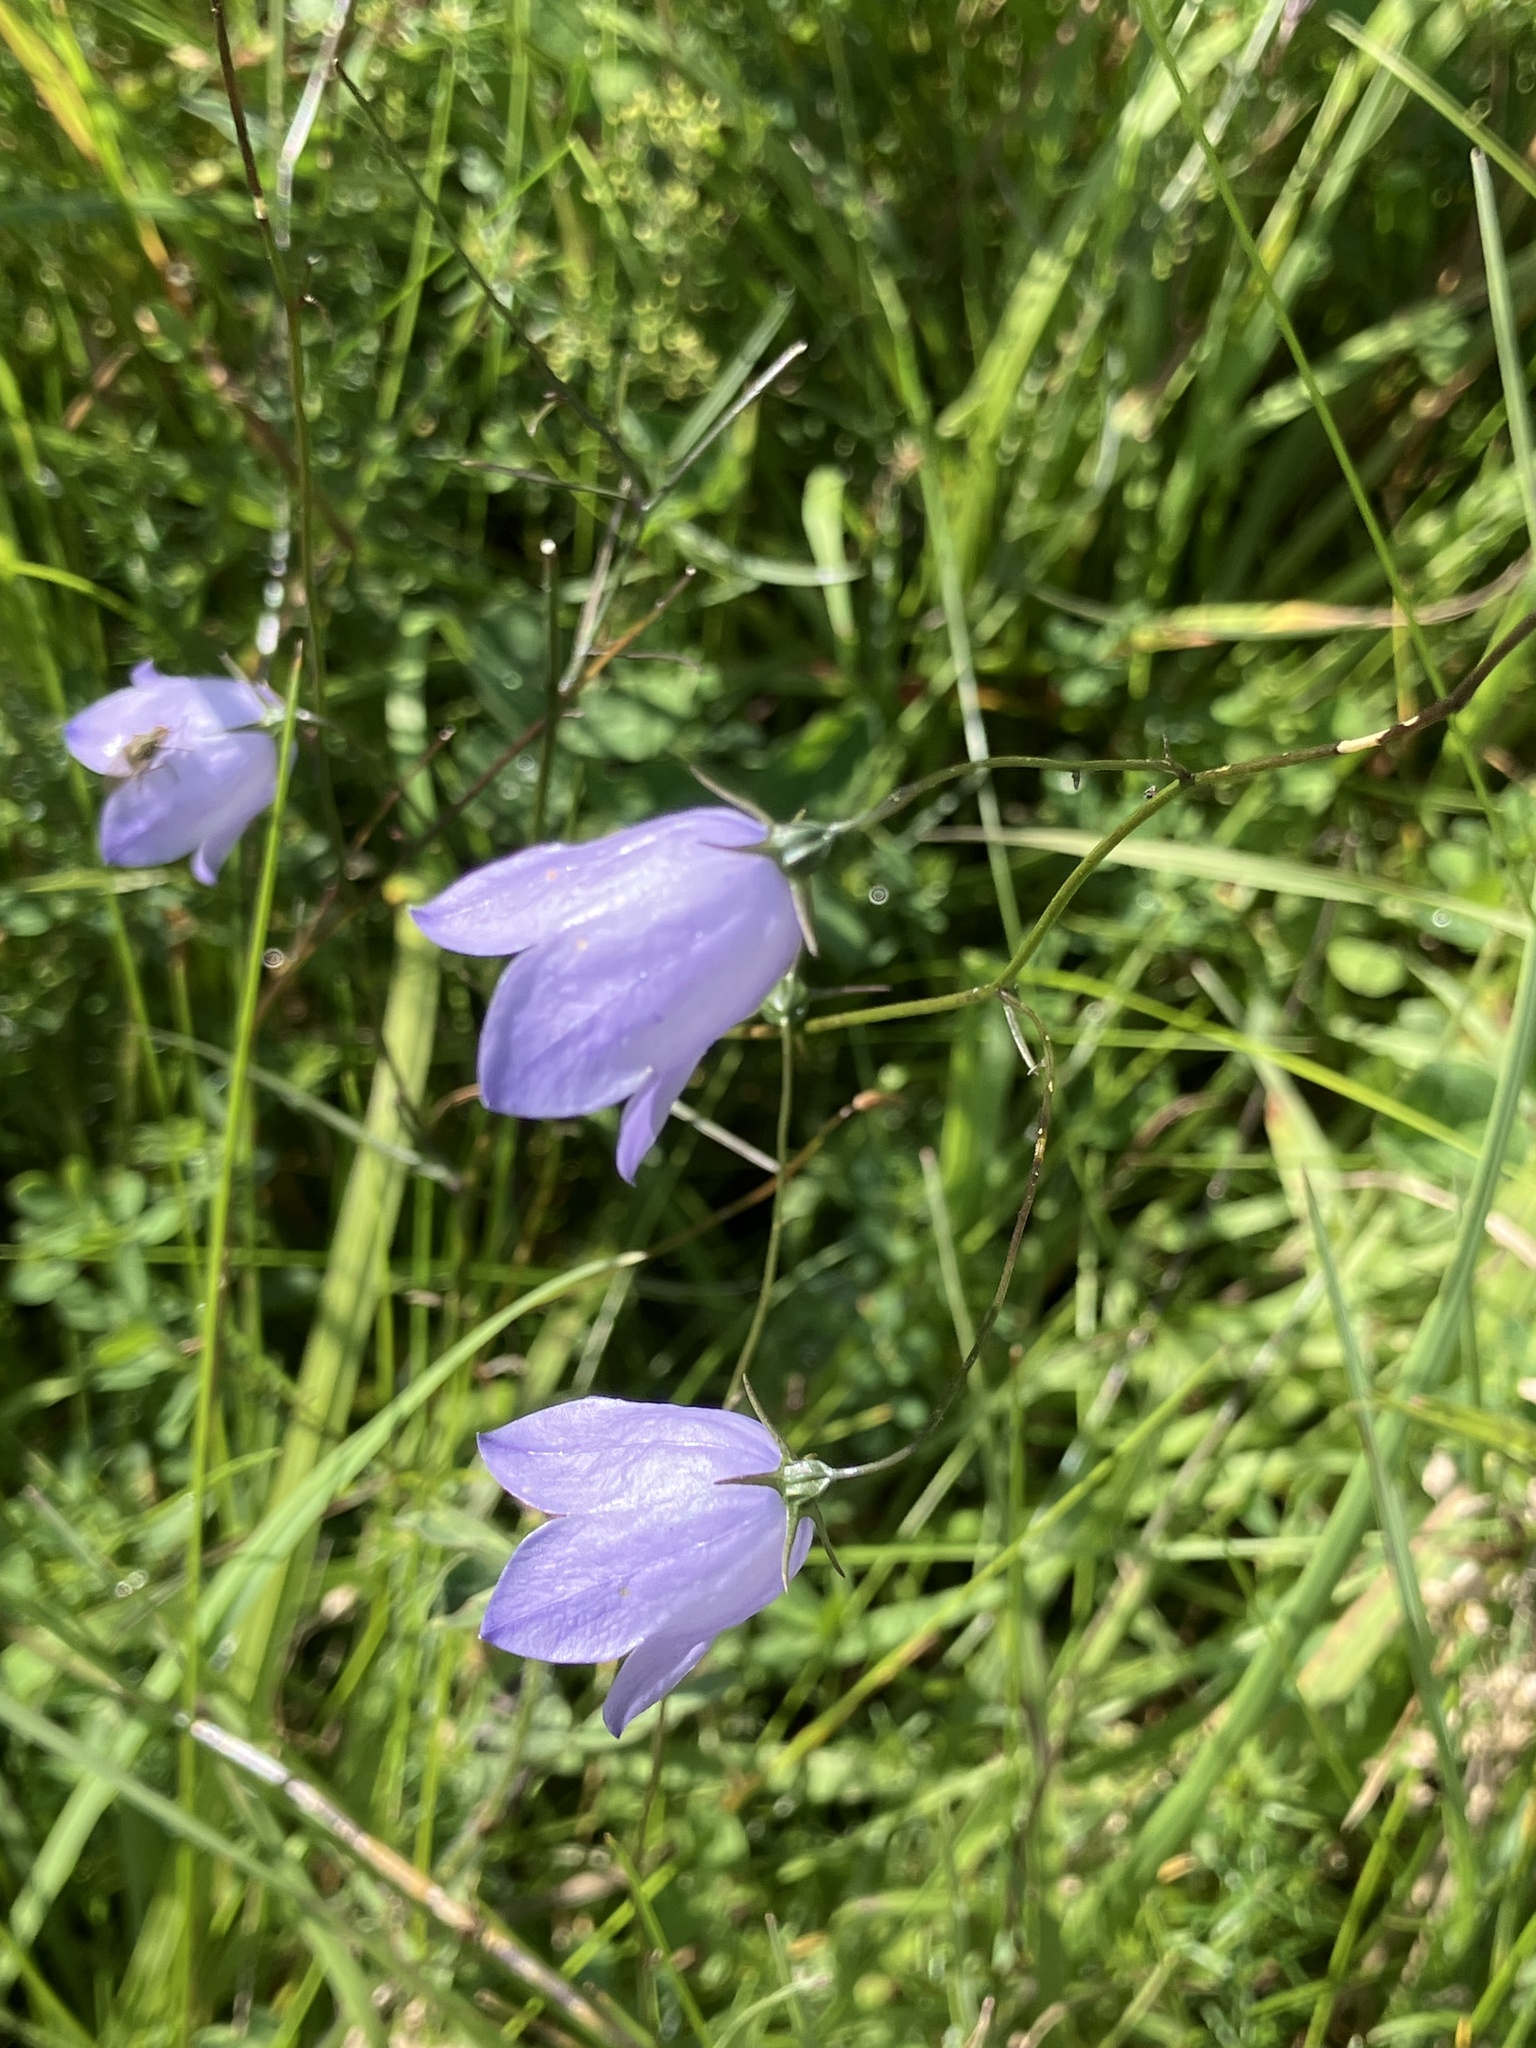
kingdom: Plantae
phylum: Tracheophyta
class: Magnoliopsida
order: Asterales
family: Campanulaceae
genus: Campanula
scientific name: Campanula rotundifolia
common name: Harebell
